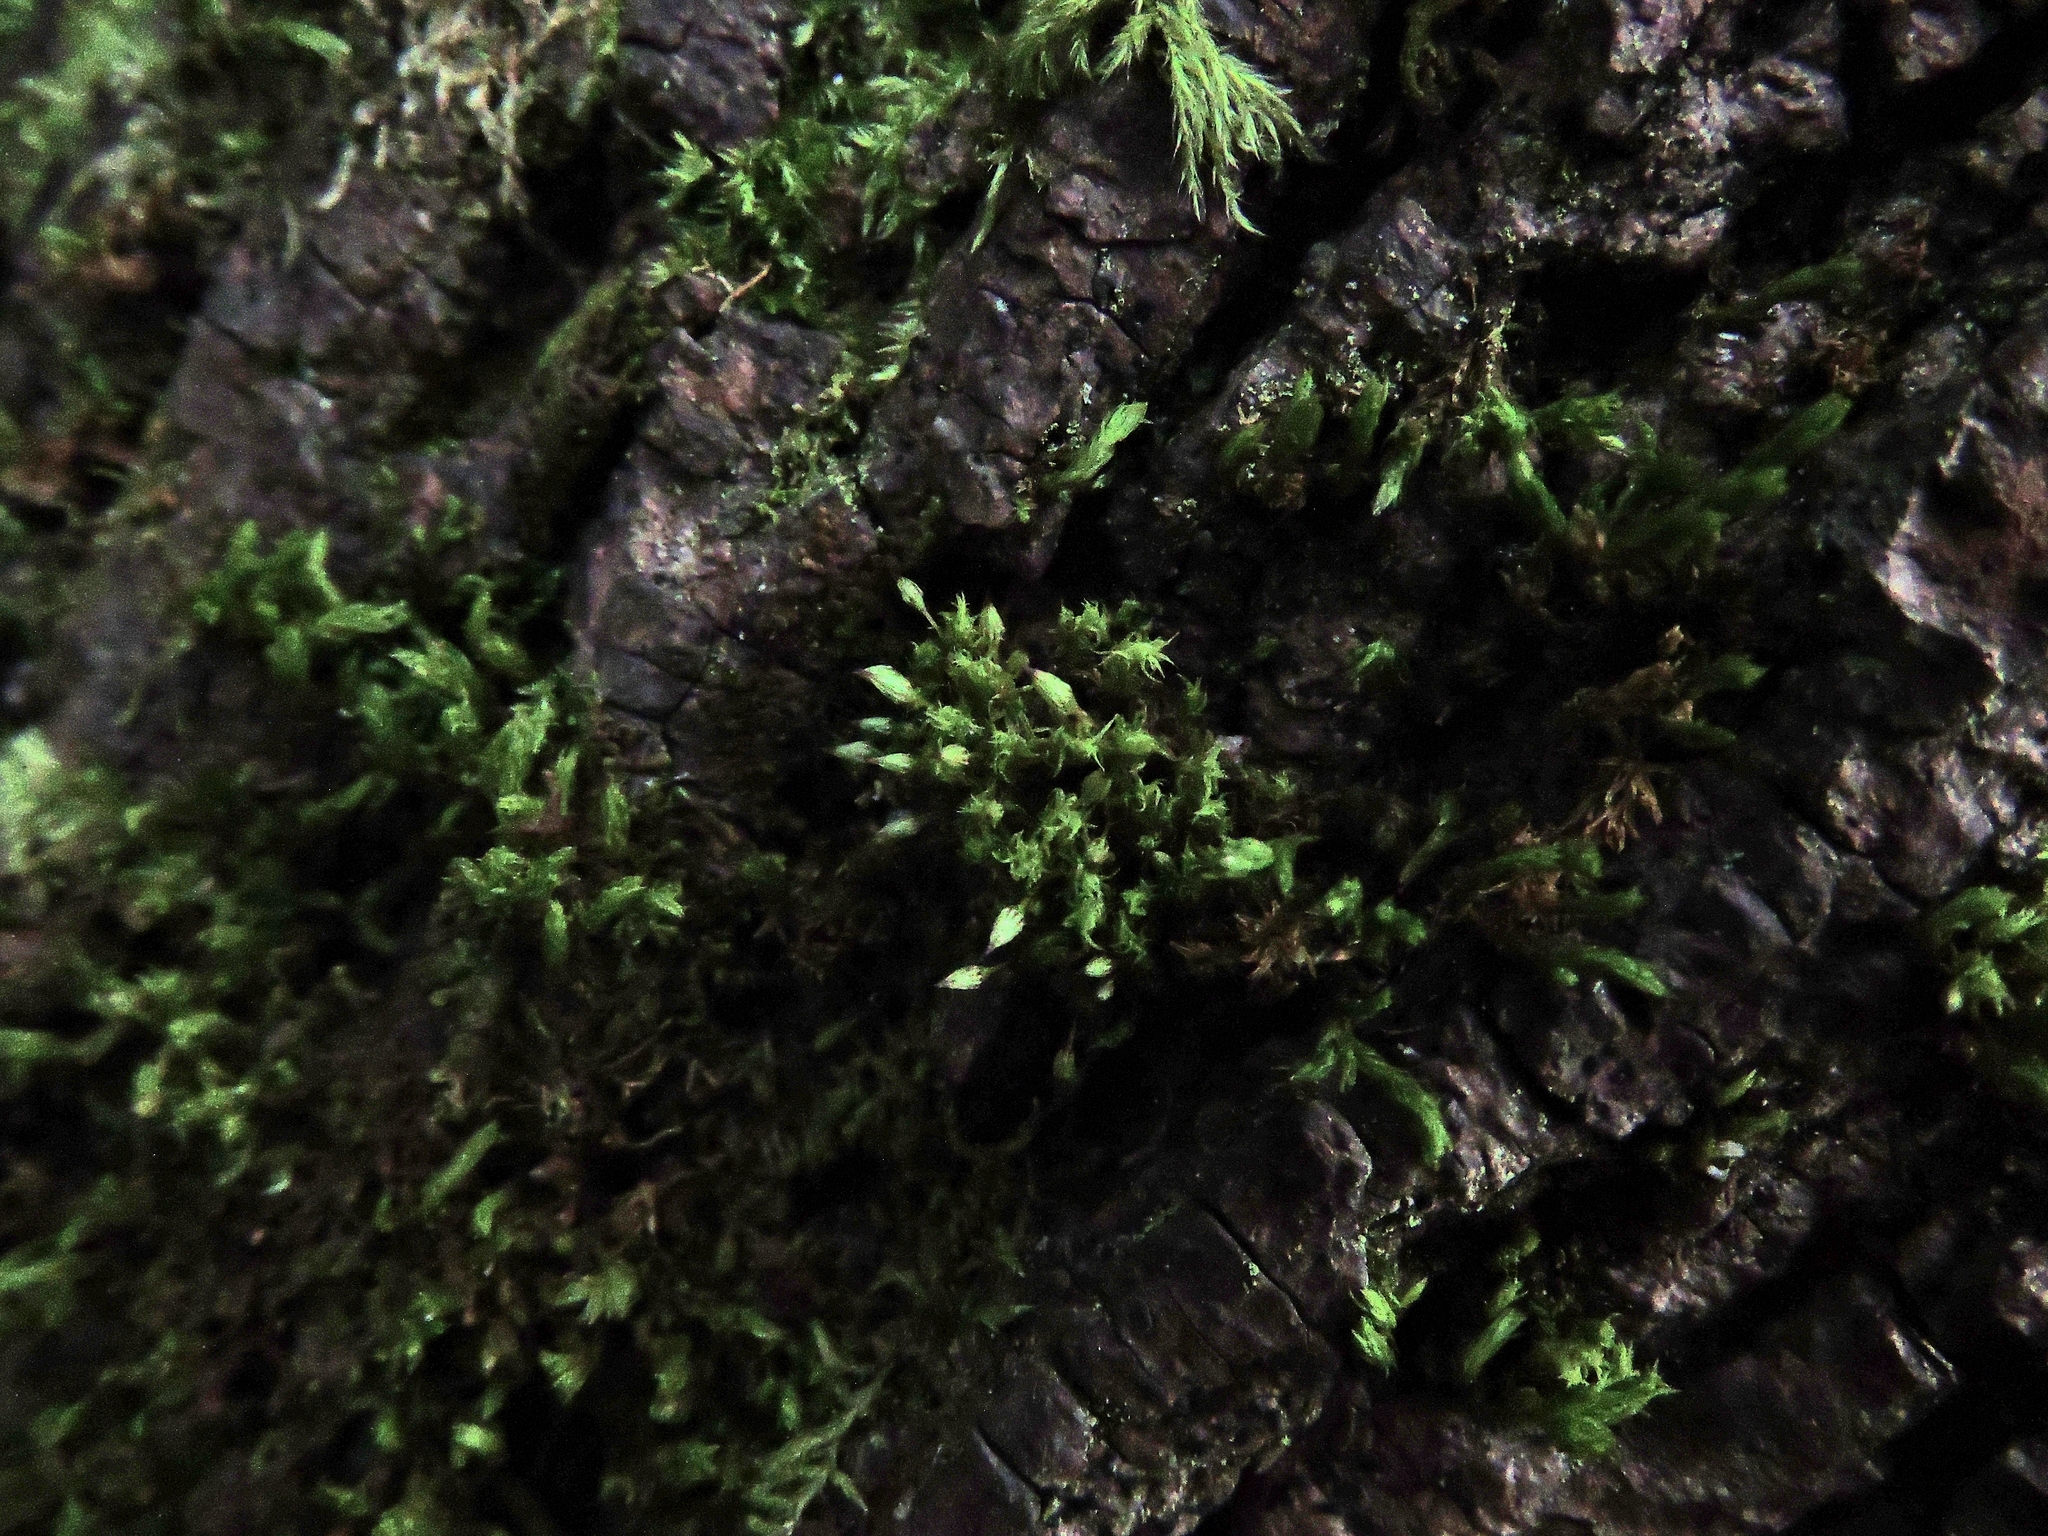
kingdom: Plantae
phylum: Bryophyta
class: Bryopsida
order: Orthotrichales
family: Orthotrichaceae
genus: Orthotrichum
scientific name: Orthotrichum pulchellum
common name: Elegant bristle-moss
